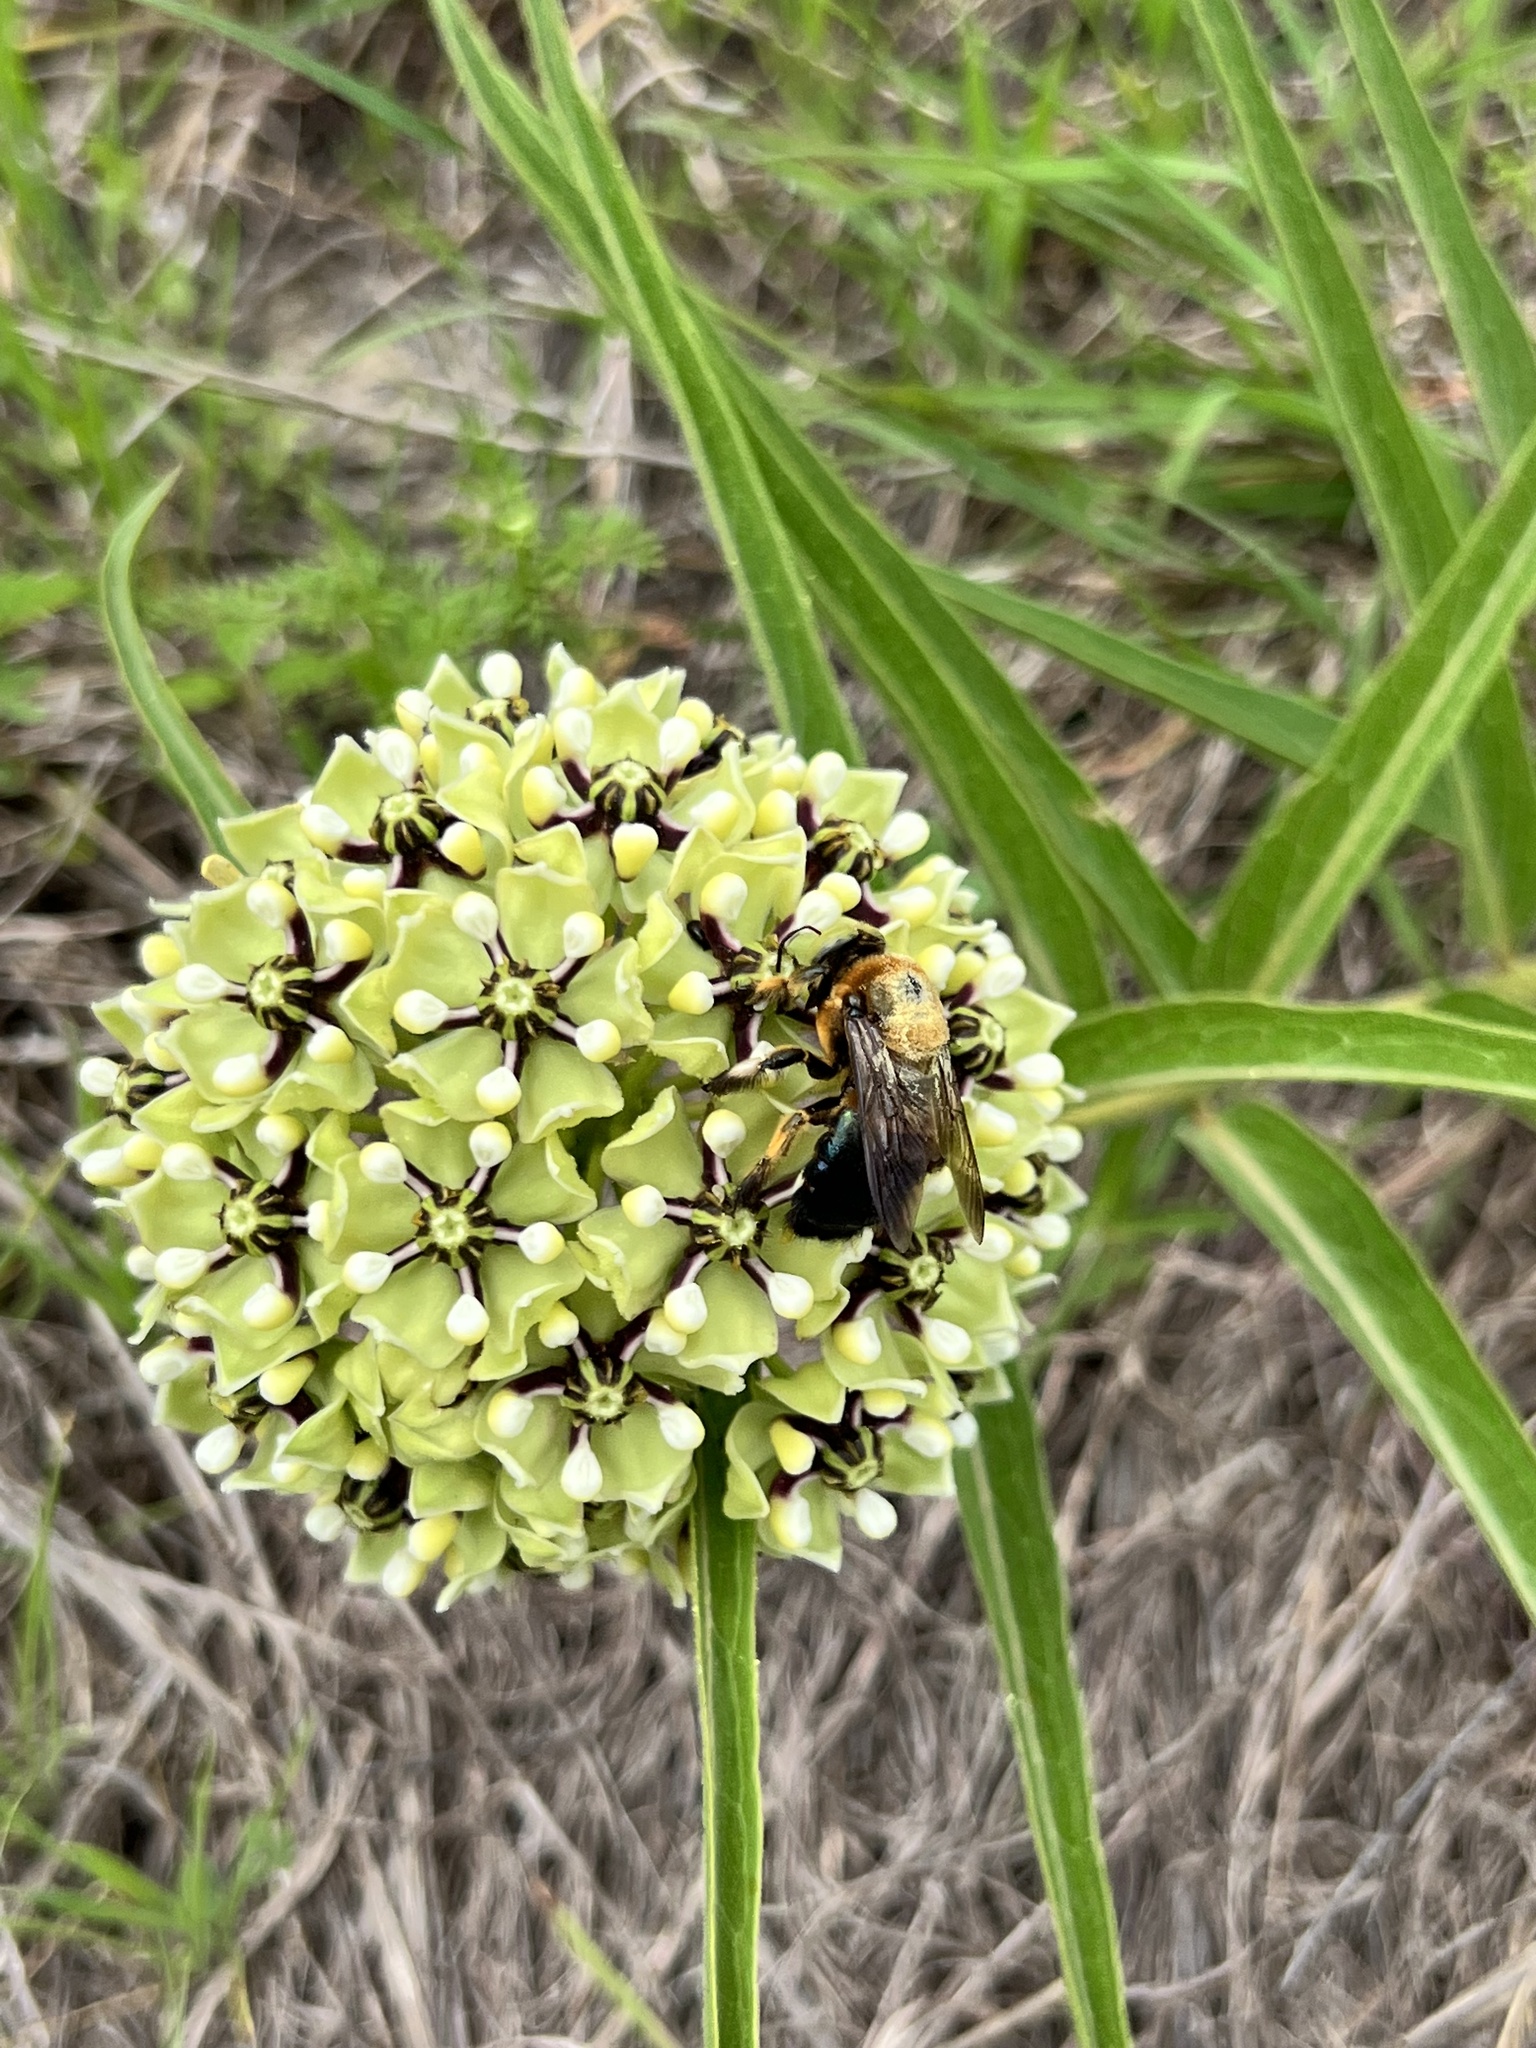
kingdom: Animalia
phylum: Arthropoda
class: Insecta
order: Hymenoptera
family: Apidae
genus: Xylocopa
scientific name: Xylocopa micans
